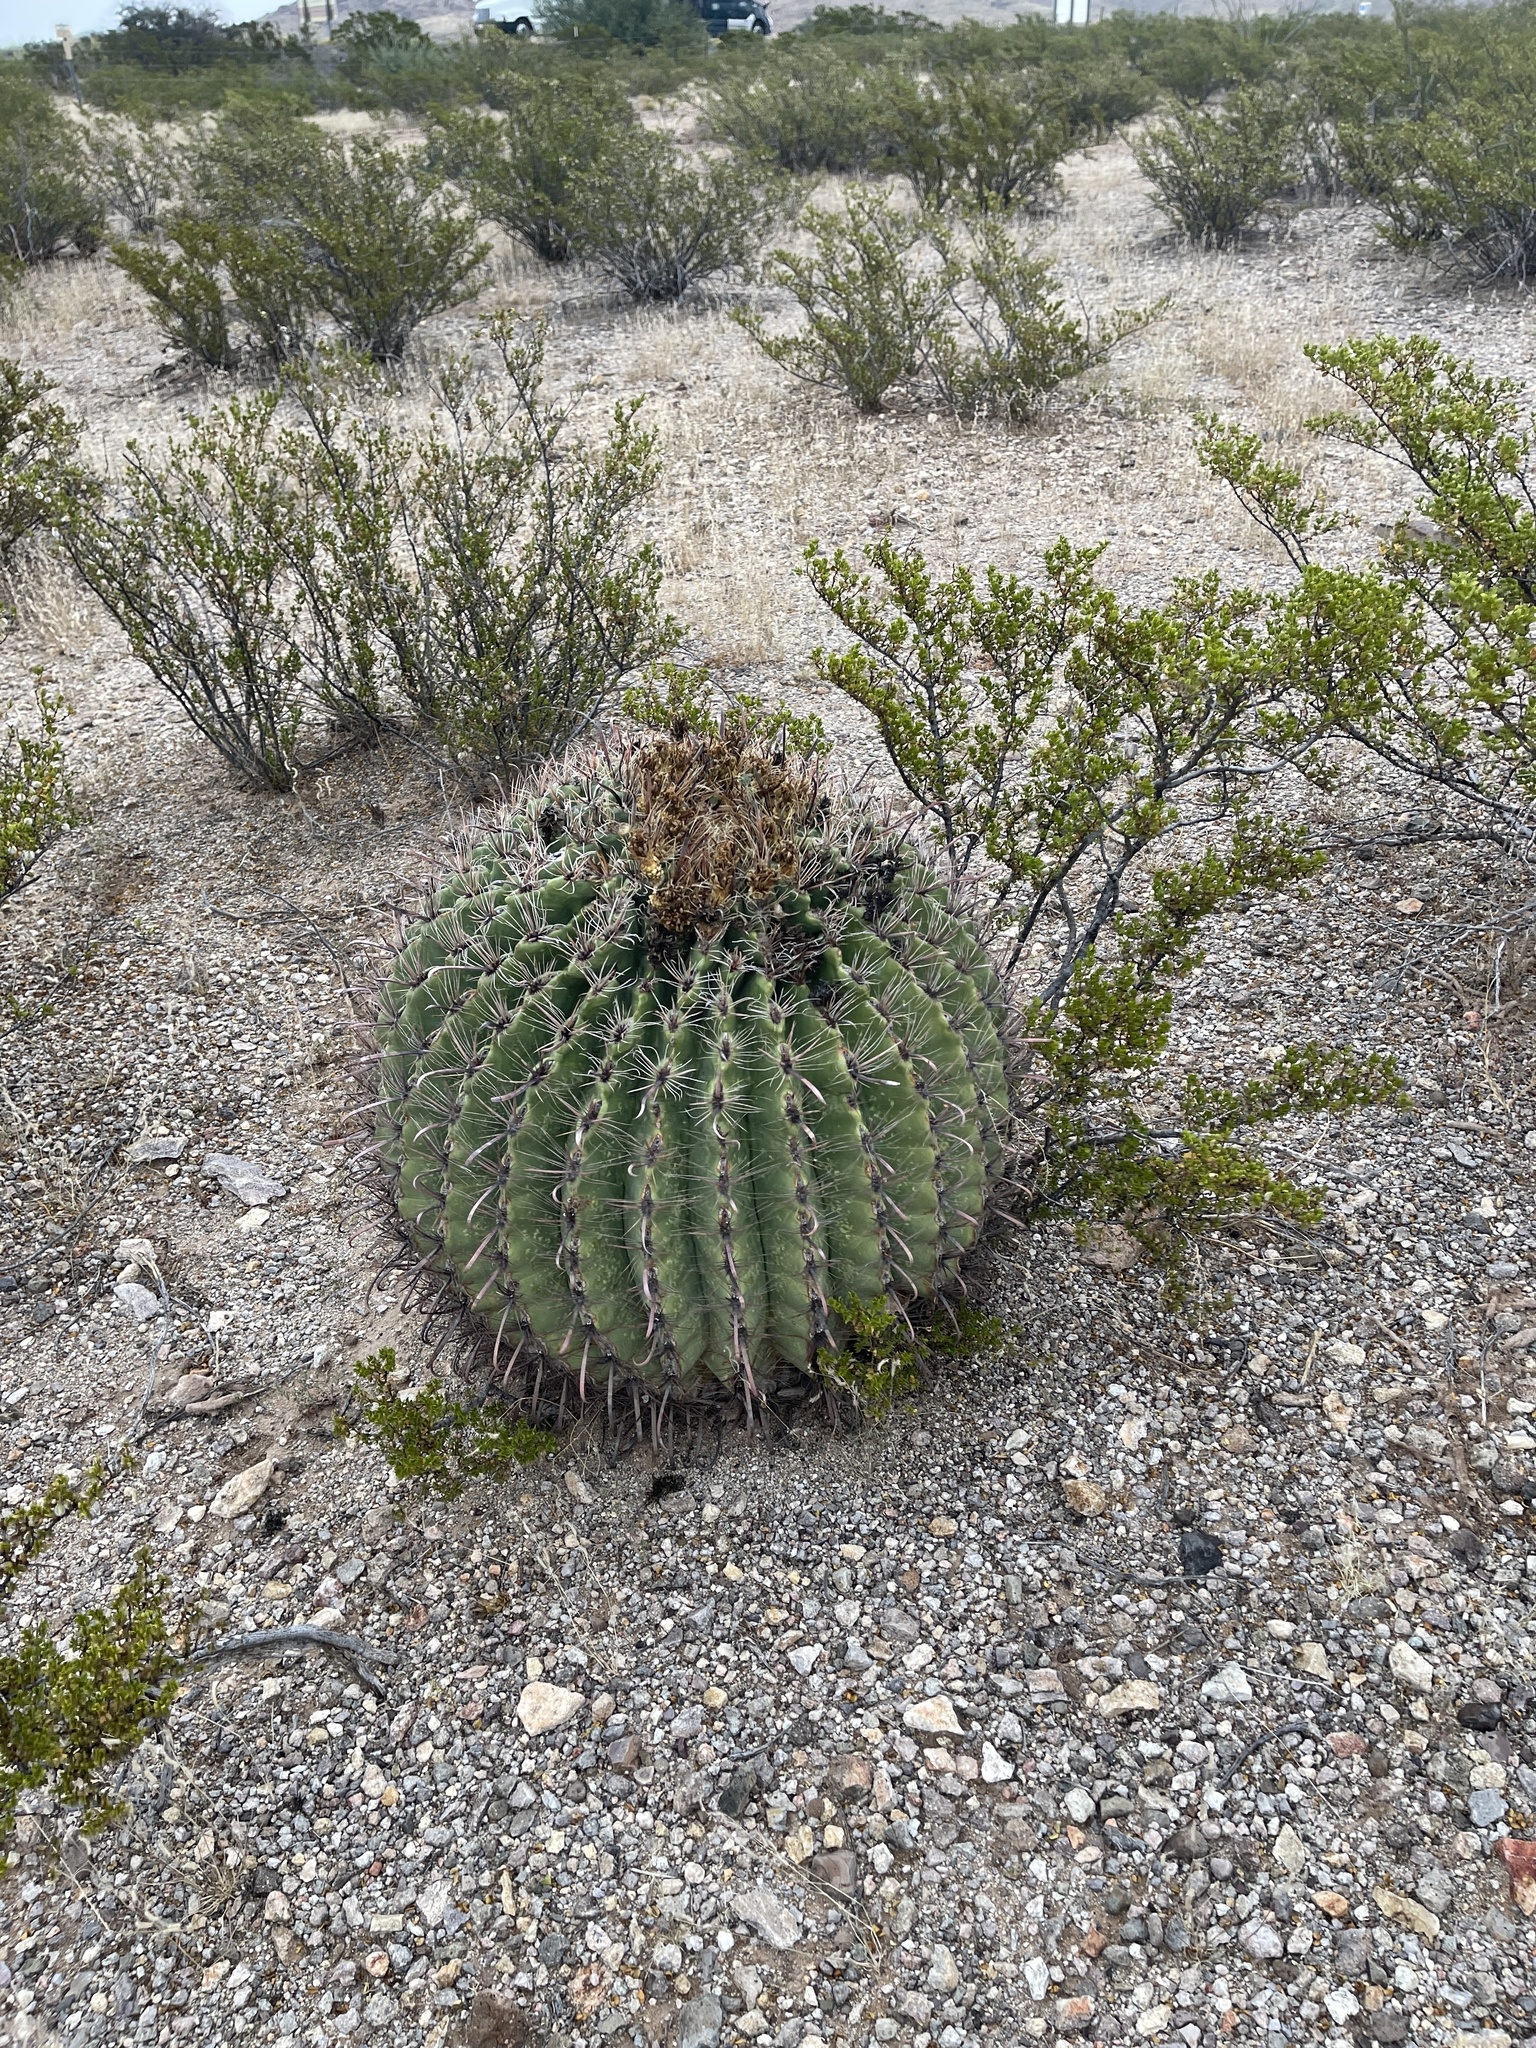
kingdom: Plantae
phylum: Tracheophyta
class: Magnoliopsida
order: Caryophyllales
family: Cactaceae
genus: Ferocactus
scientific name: Ferocactus wislizeni
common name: Candy barrel cactus
